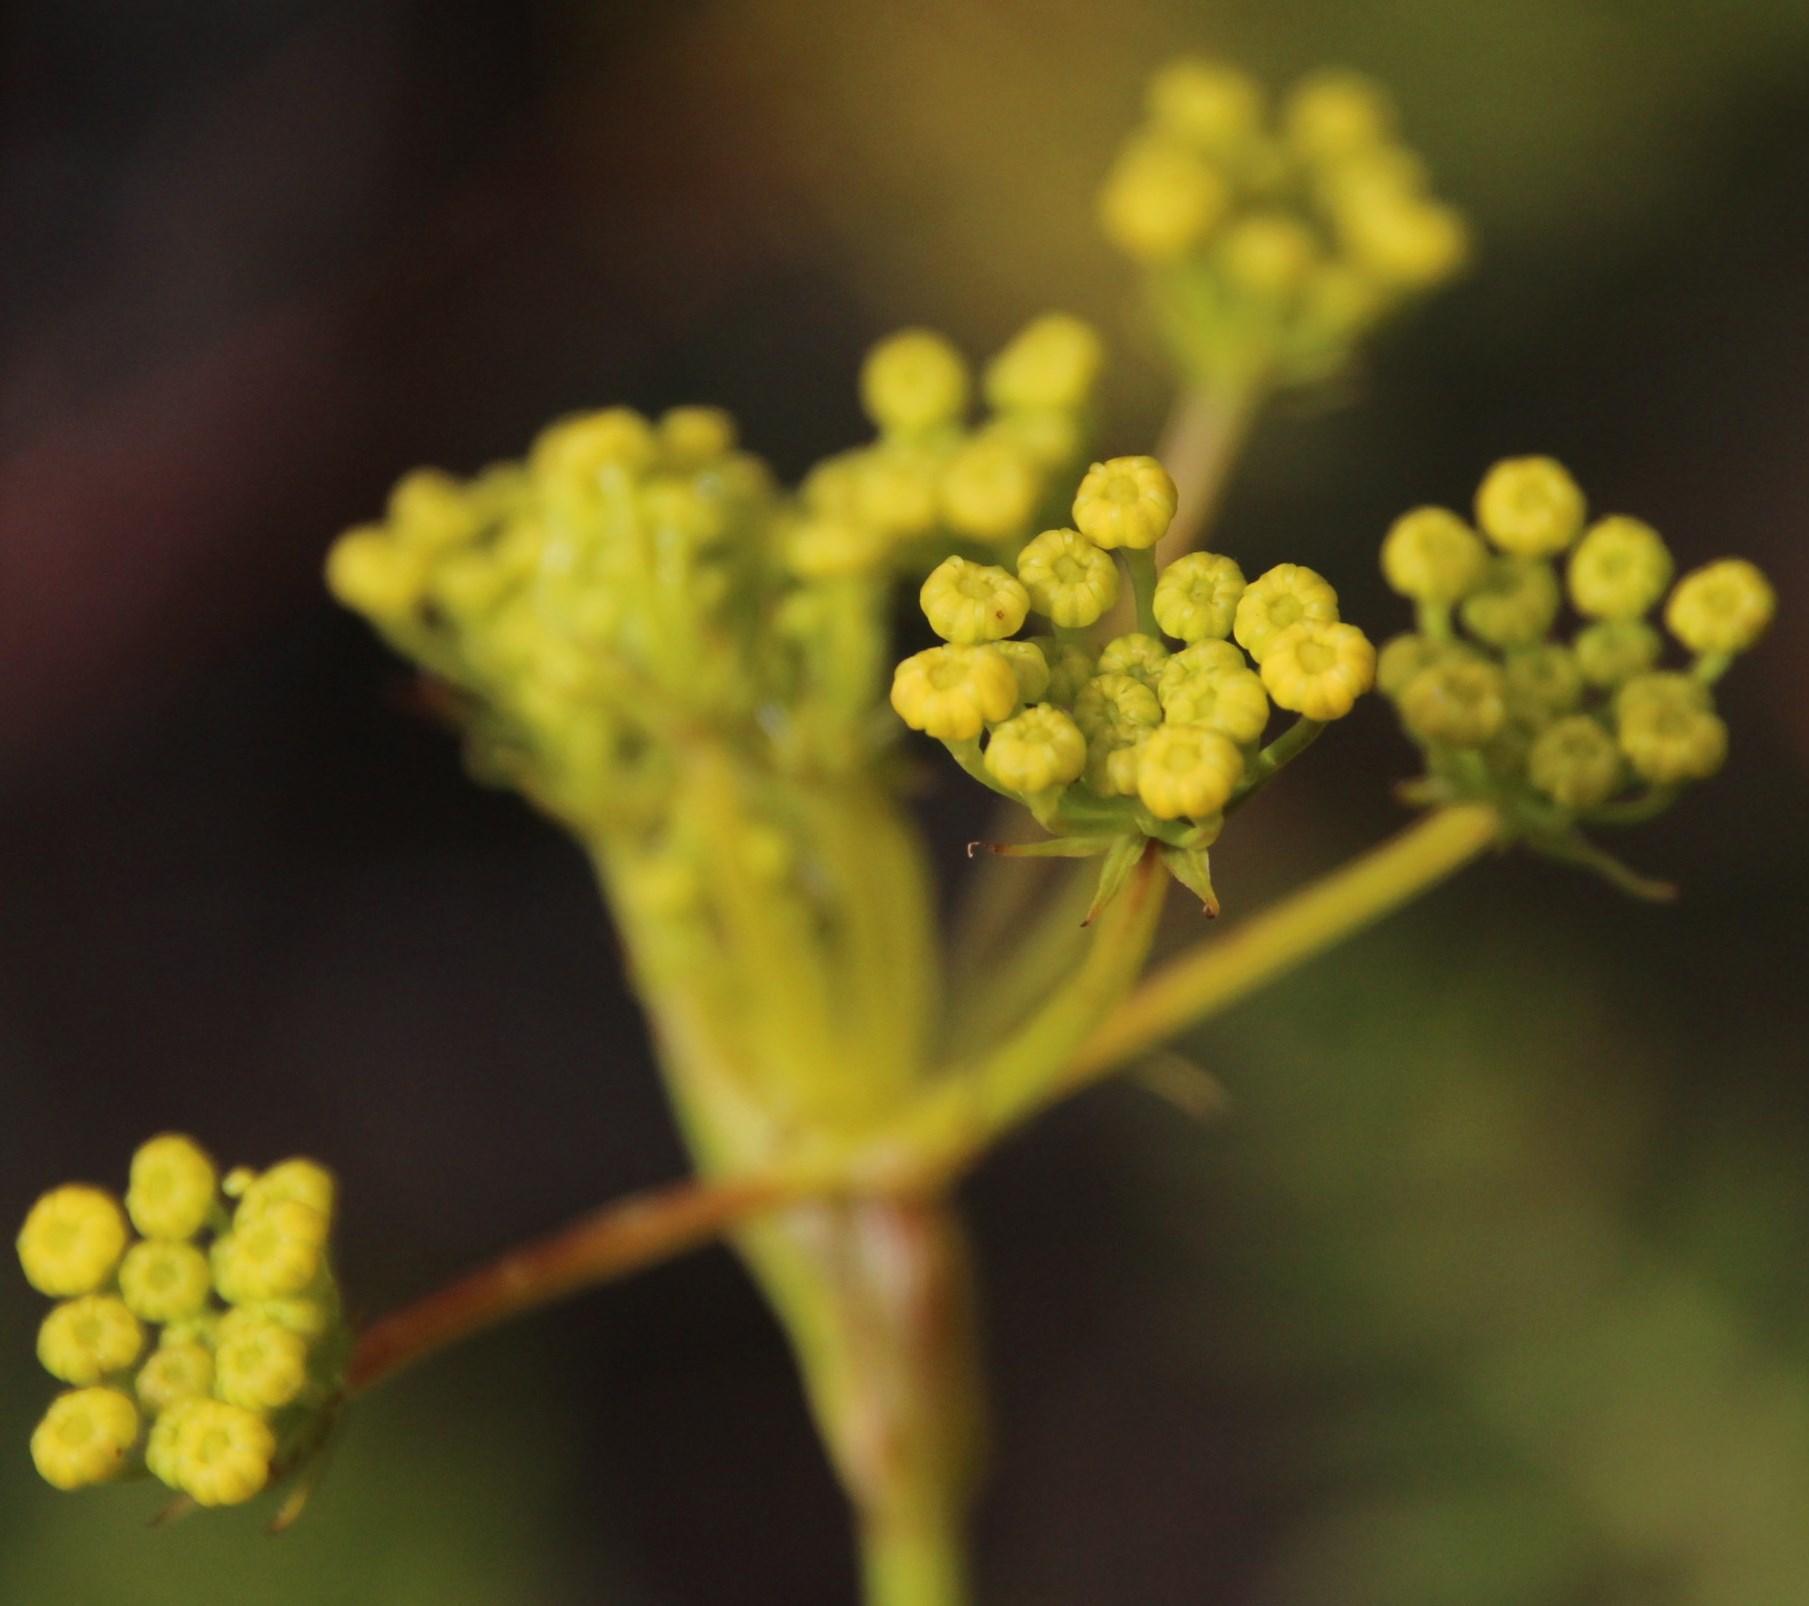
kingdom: Plantae
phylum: Tracheophyta
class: Magnoliopsida
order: Apiales
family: Apiaceae
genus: Notobubon
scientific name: Notobubon ferulaceum
